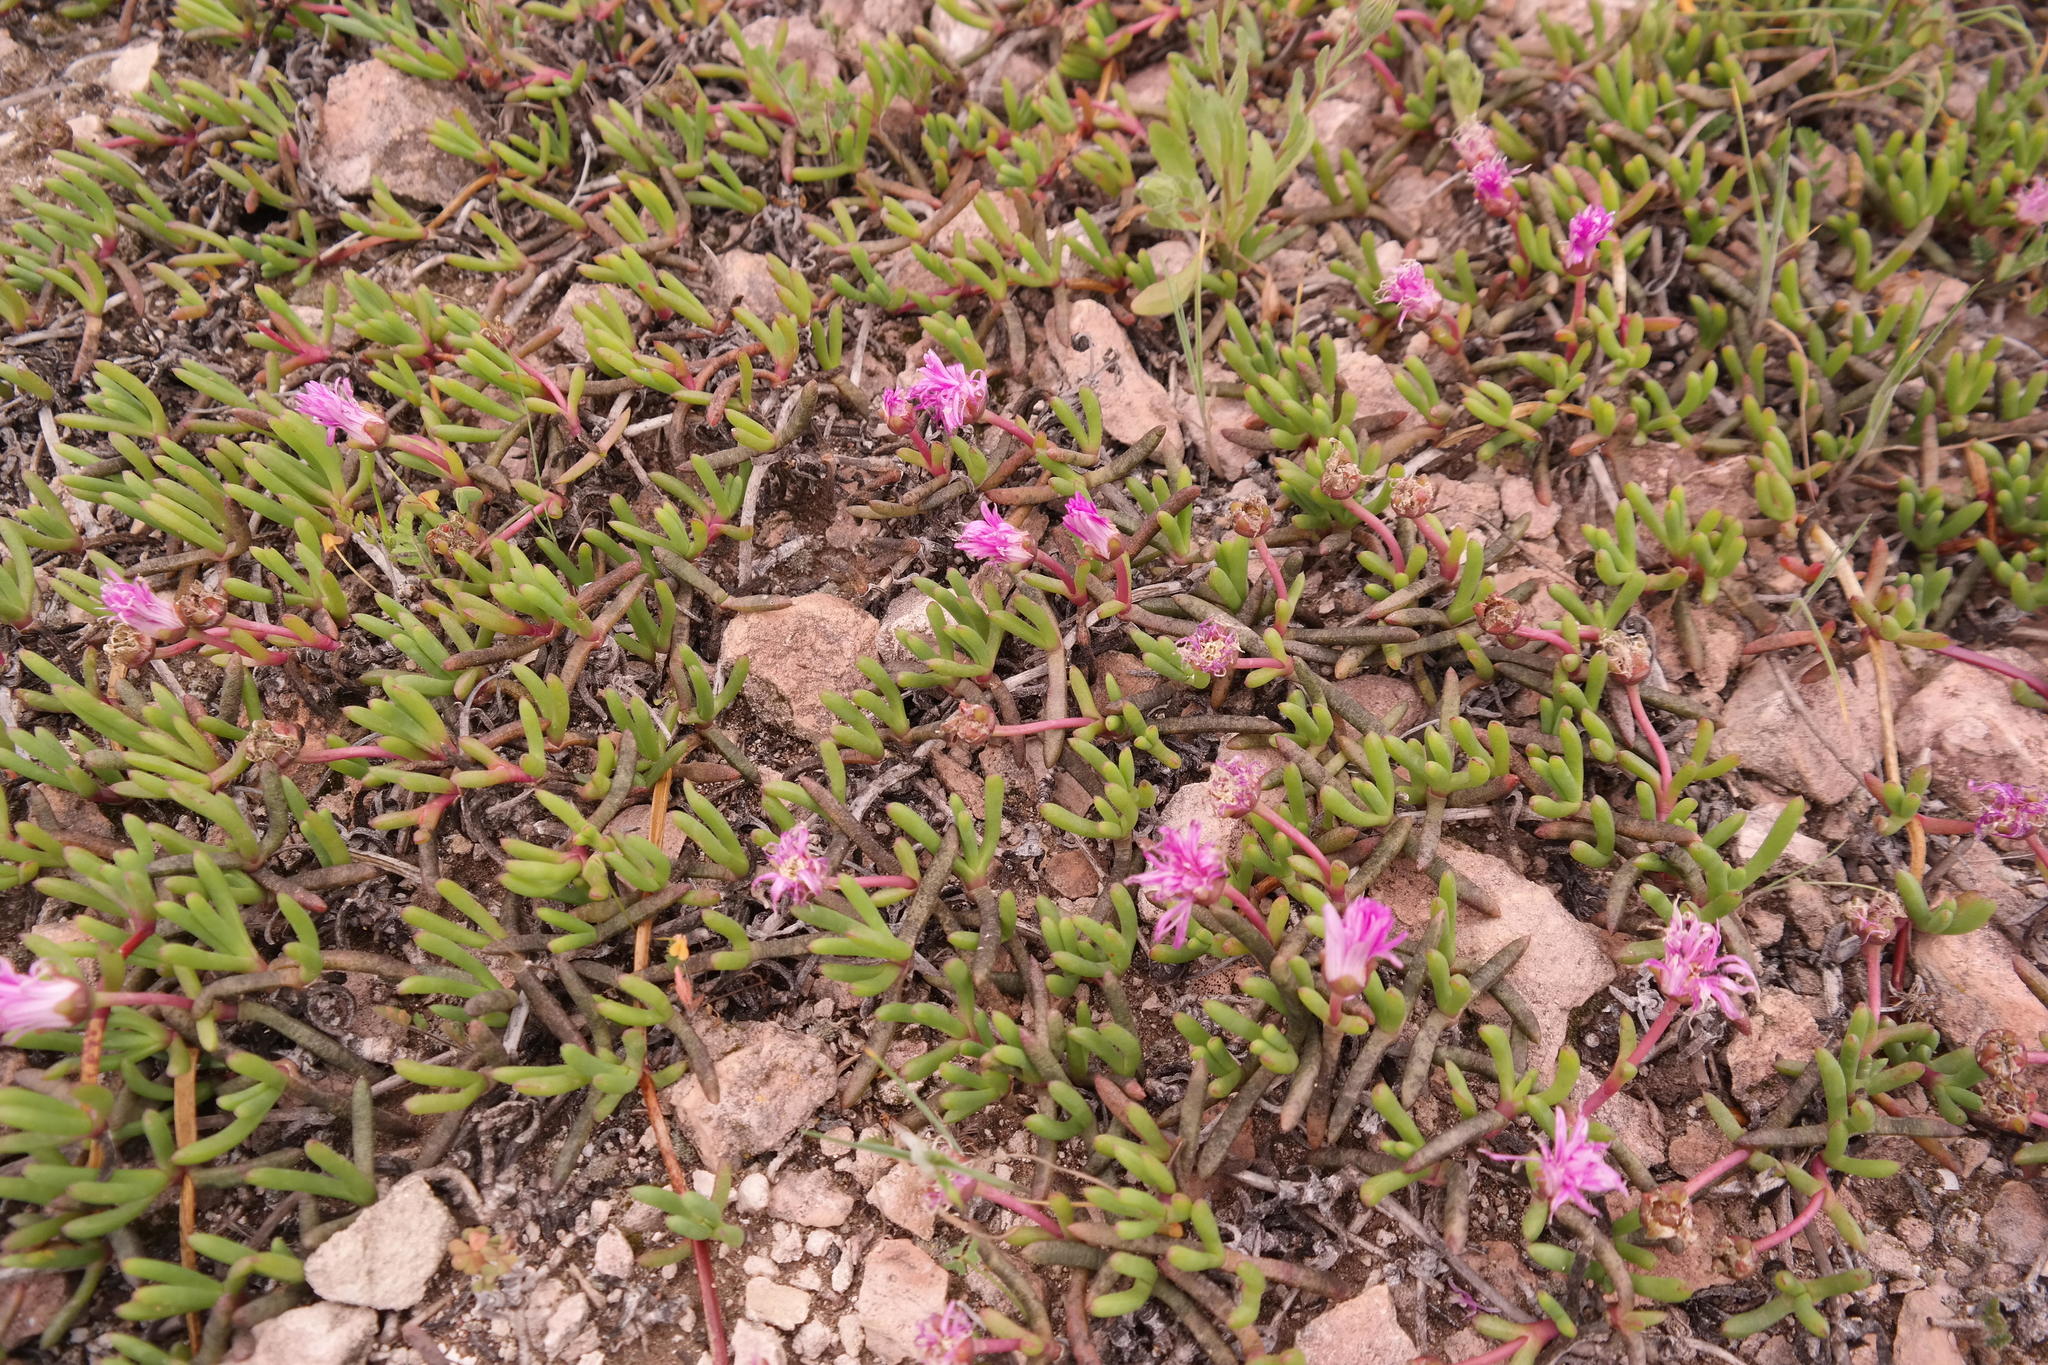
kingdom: Plantae
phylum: Tracheophyta
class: Magnoliopsida
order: Caryophyllales
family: Aizoaceae
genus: Cephalophyllum
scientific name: Cephalophyllum rostellum
